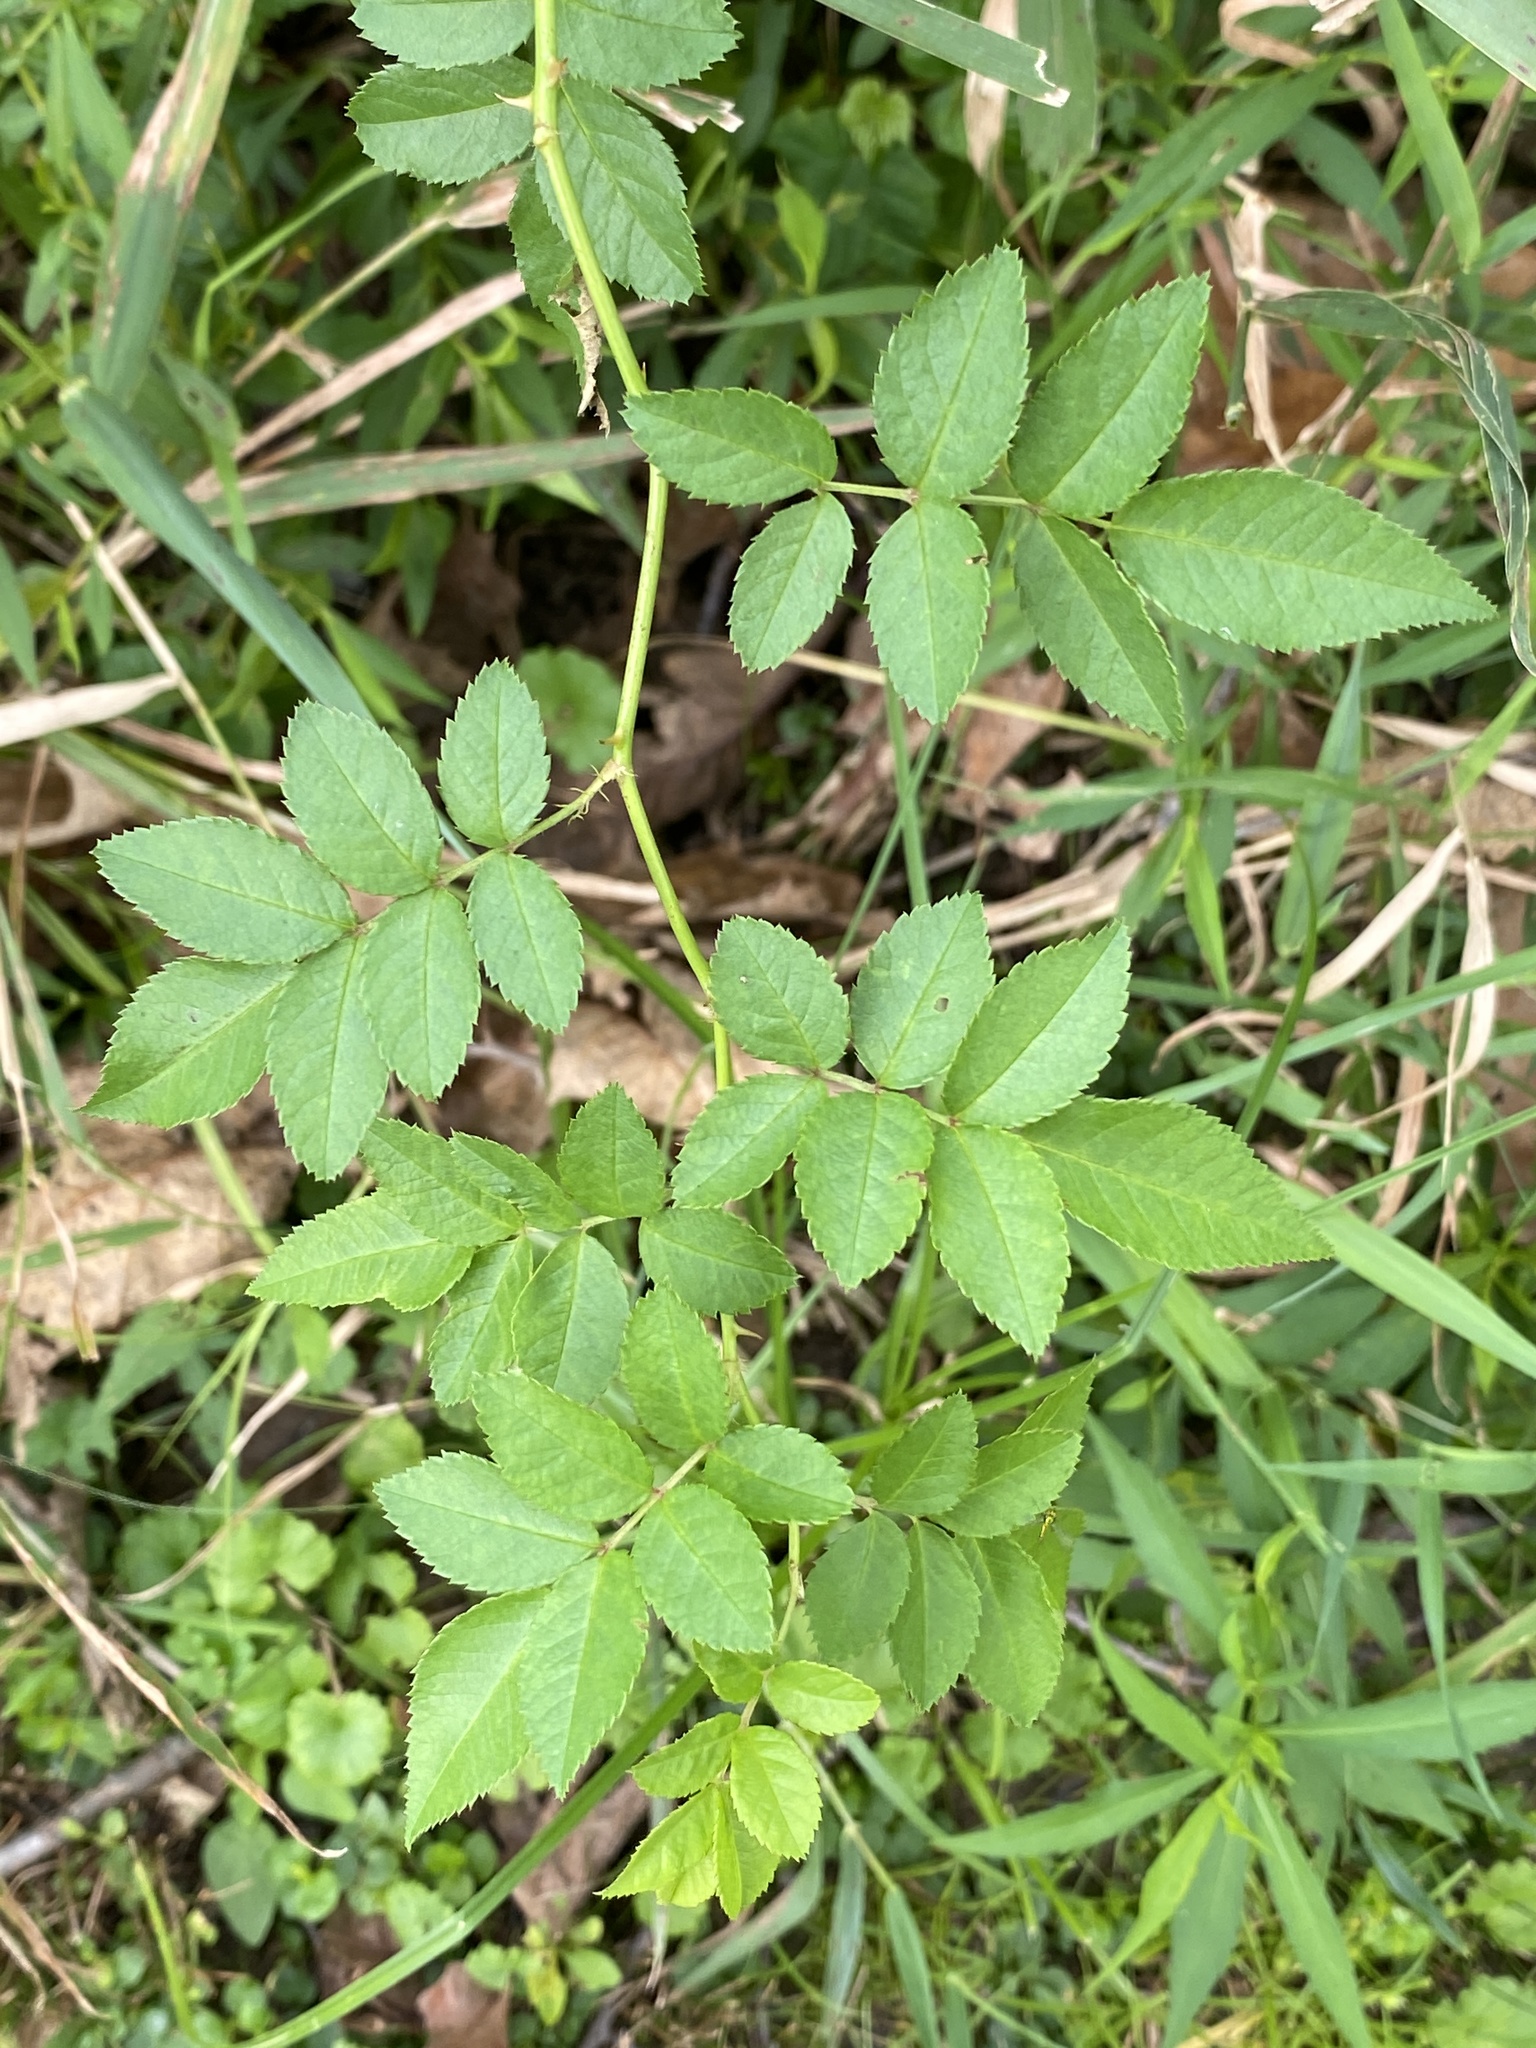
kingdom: Plantae
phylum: Tracheophyta
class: Magnoliopsida
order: Rosales
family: Rosaceae
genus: Rosa
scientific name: Rosa multiflora
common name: Multiflora rose
